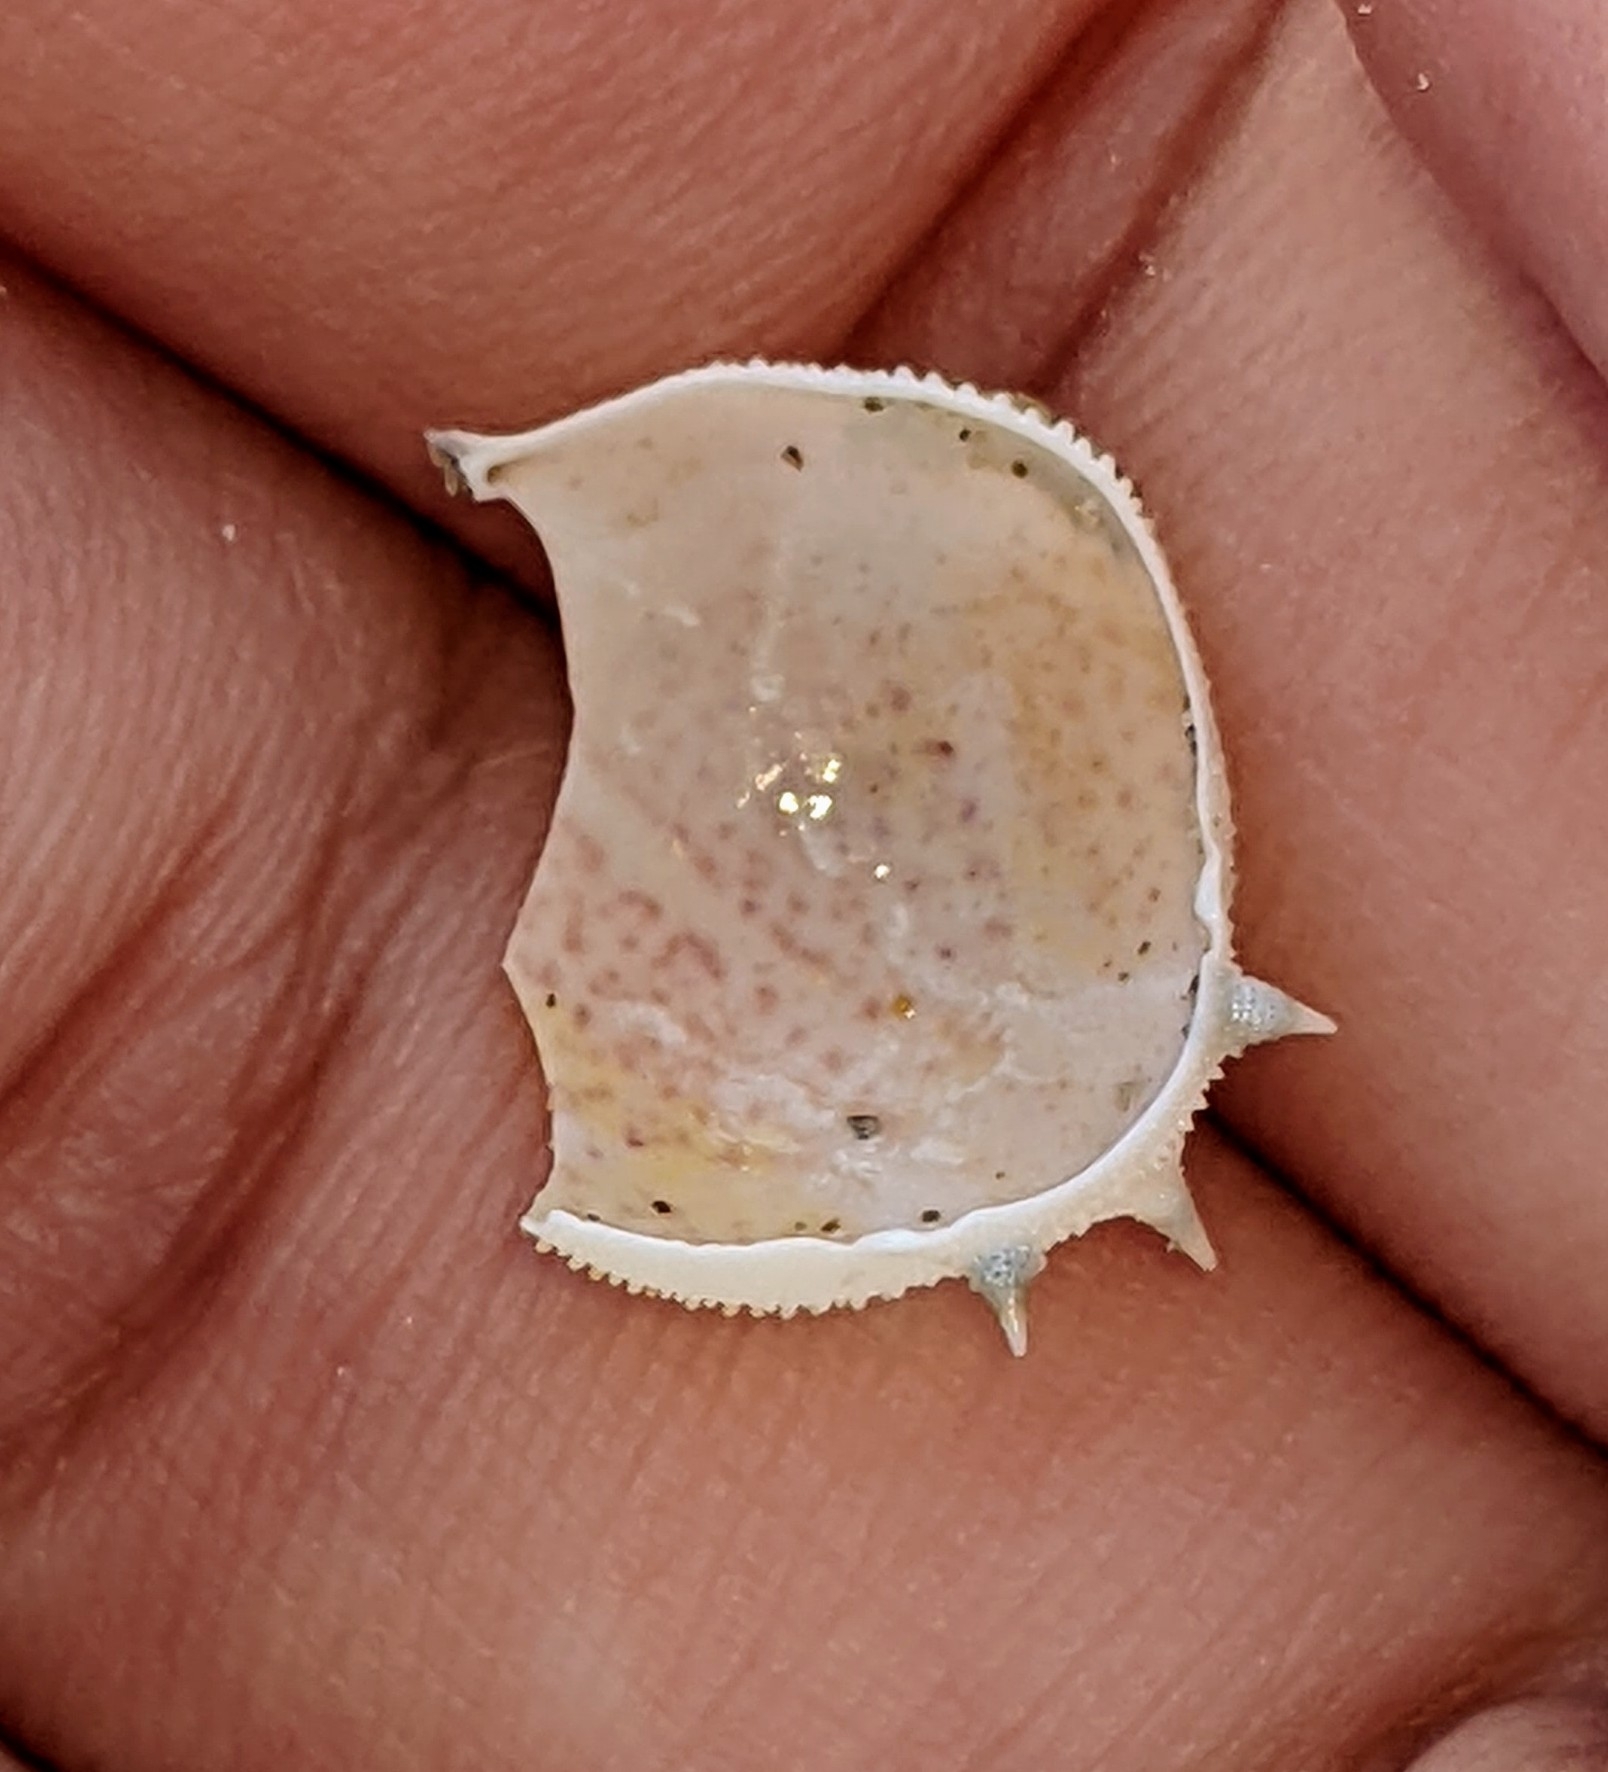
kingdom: Animalia
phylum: Arthropoda
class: Malacostraca
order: Decapoda
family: Leucosiidae
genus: Persephona
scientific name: Persephona aquilonaris
